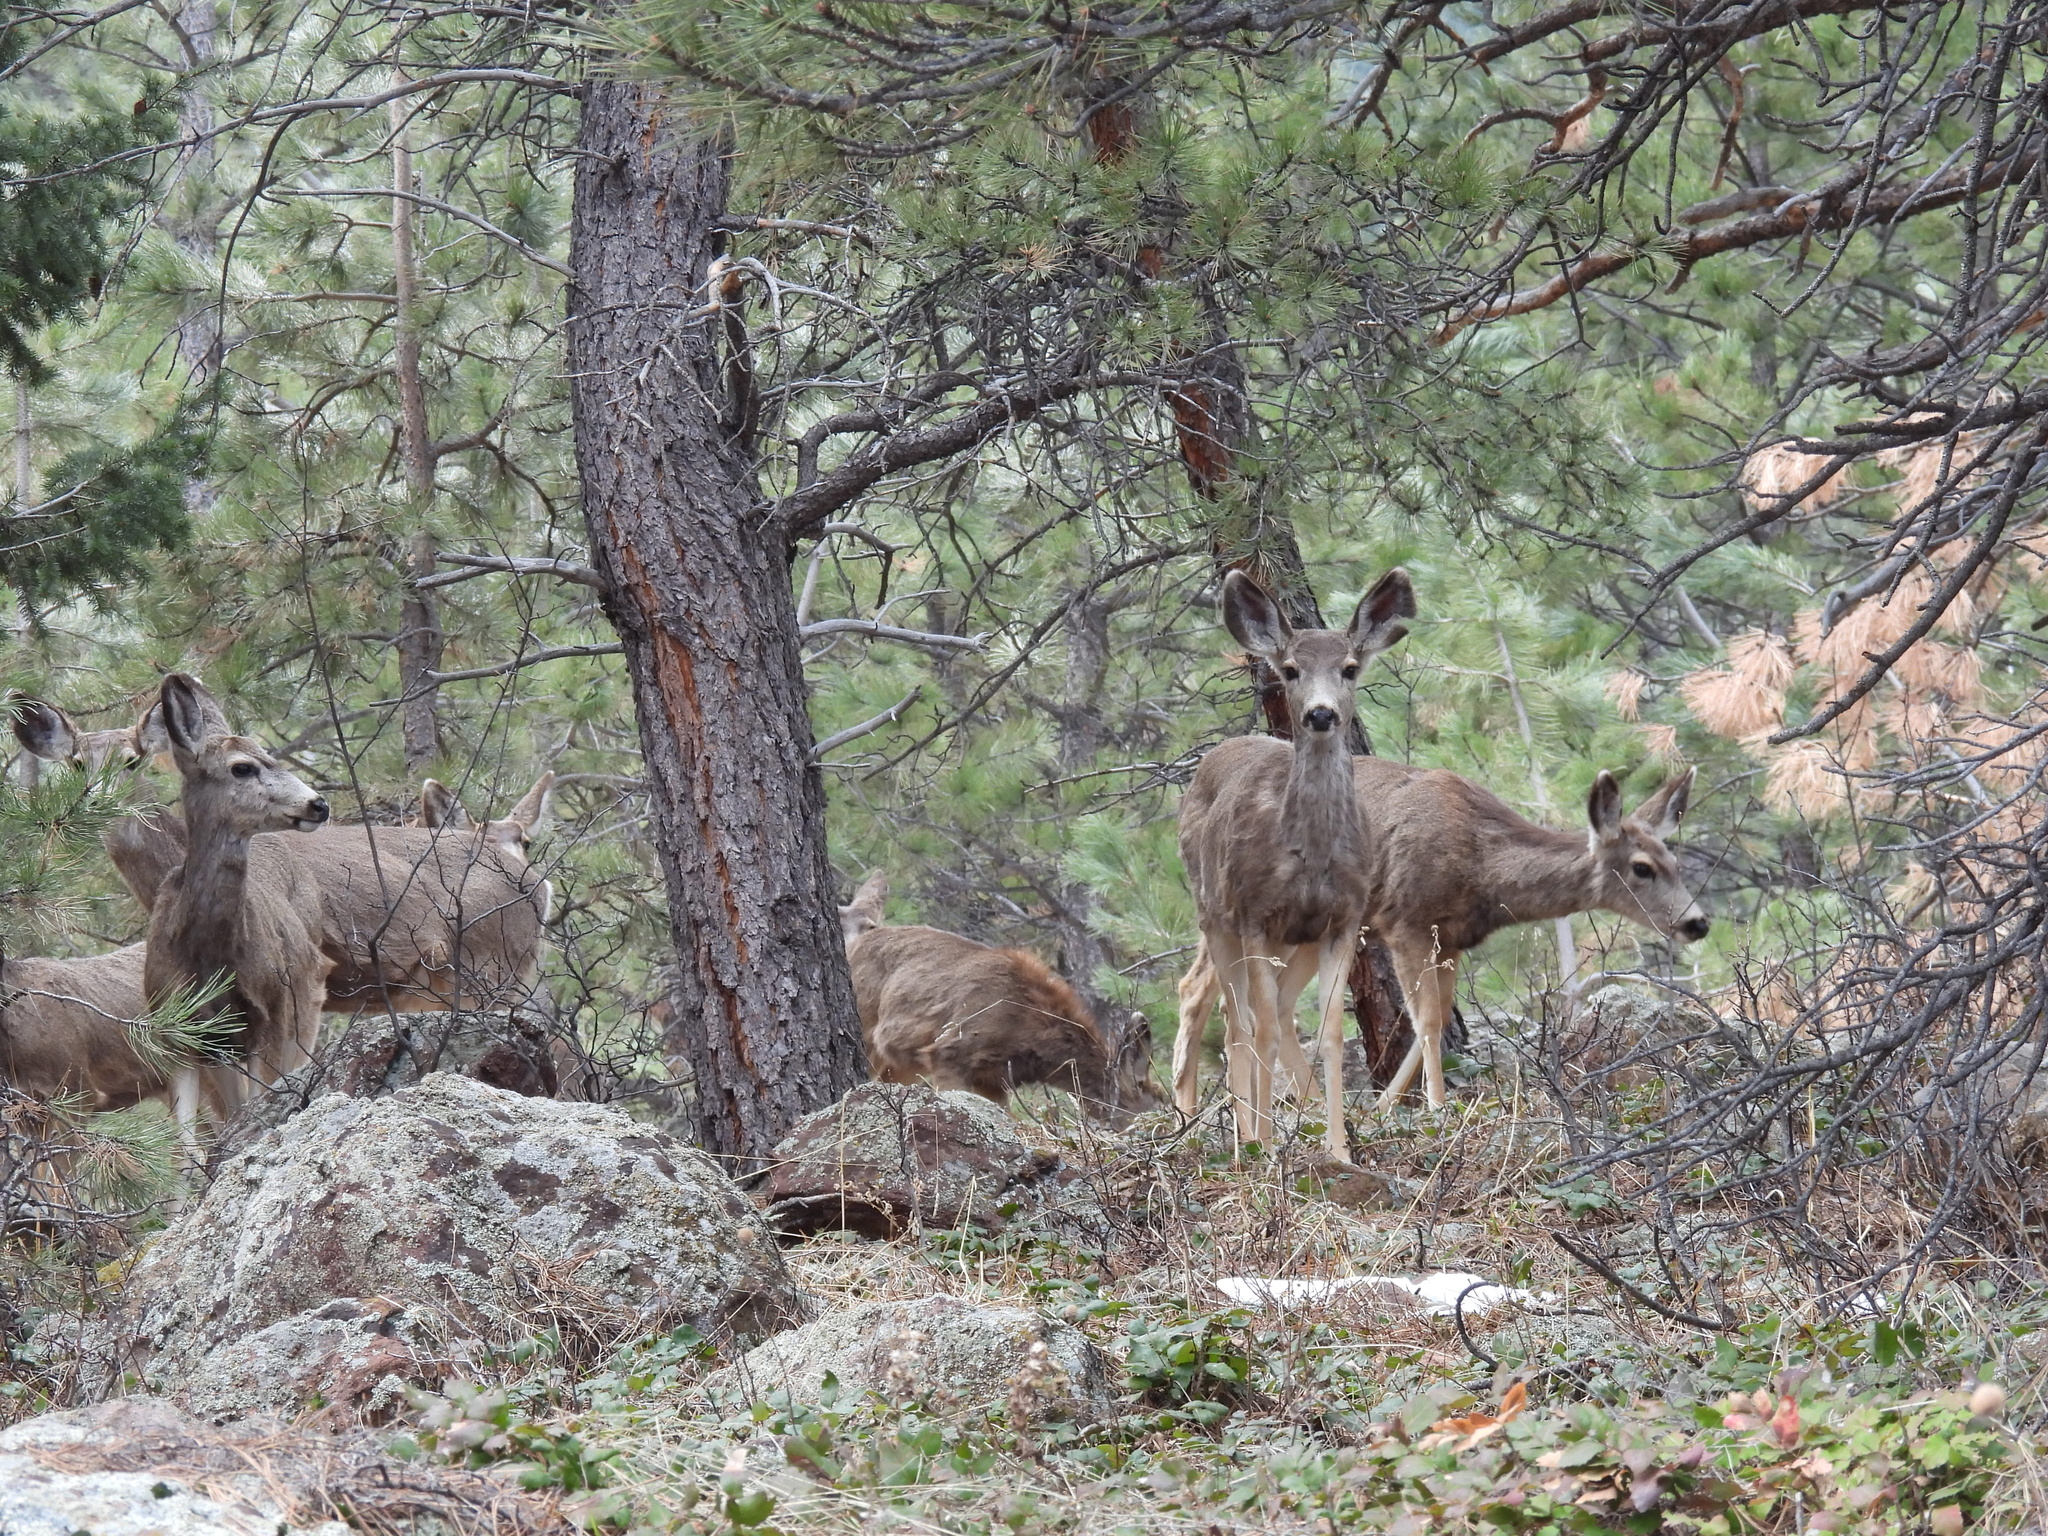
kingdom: Animalia
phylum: Chordata
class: Mammalia
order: Artiodactyla
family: Cervidae
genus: Odocoileus
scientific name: Odocoileus hemionus
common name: Mule deer
